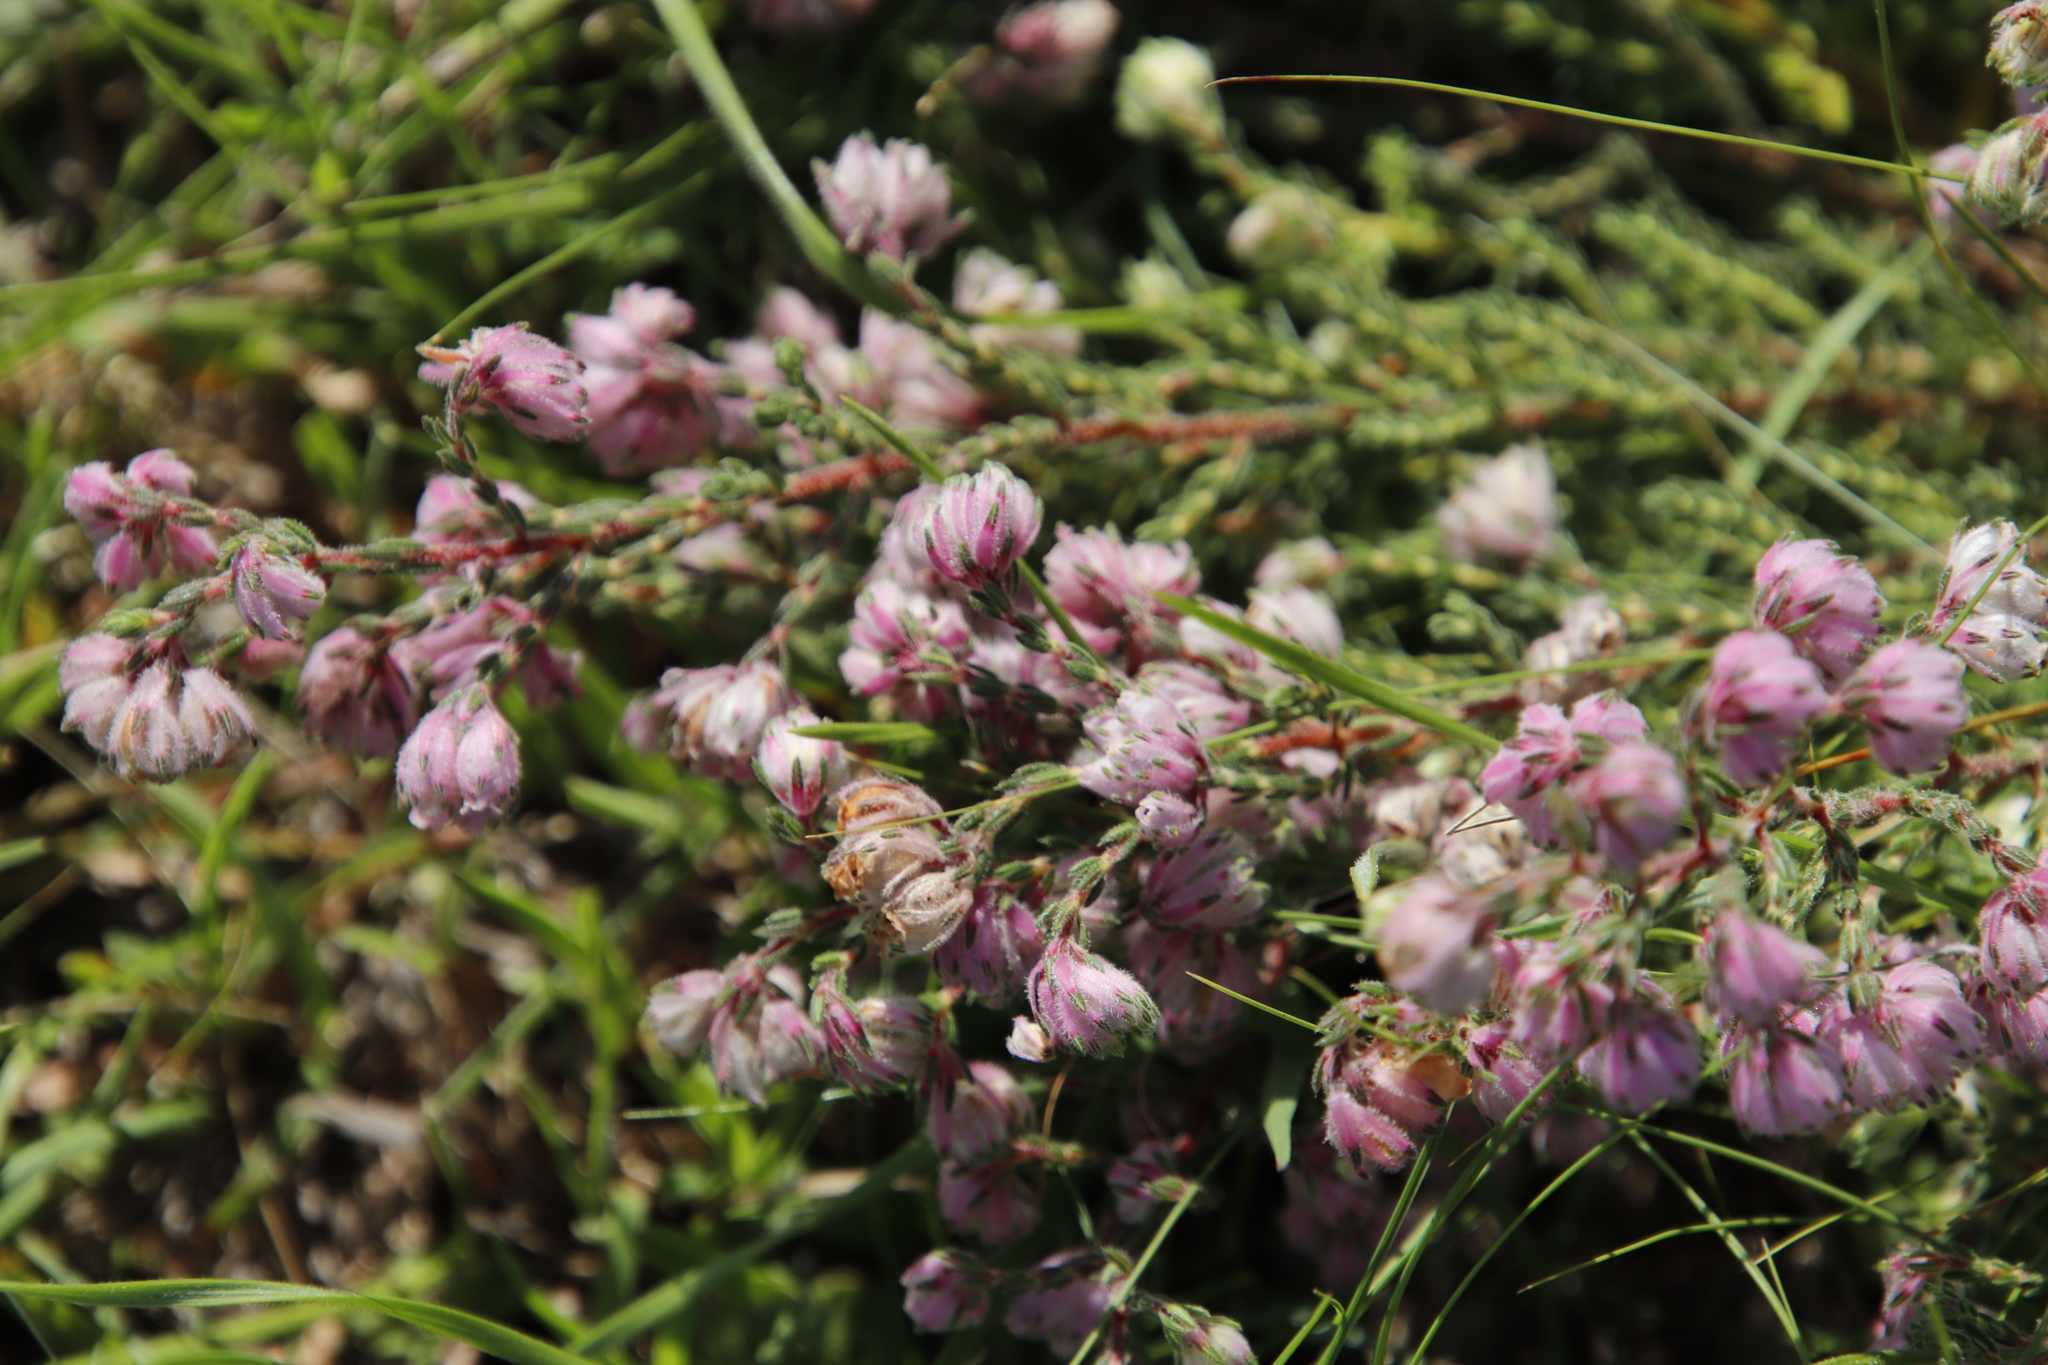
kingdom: Plantae
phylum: Tracheophyta
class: Magnoliopsida
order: Ericales
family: Ericaceae
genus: Erica
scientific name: Erica cooperi
